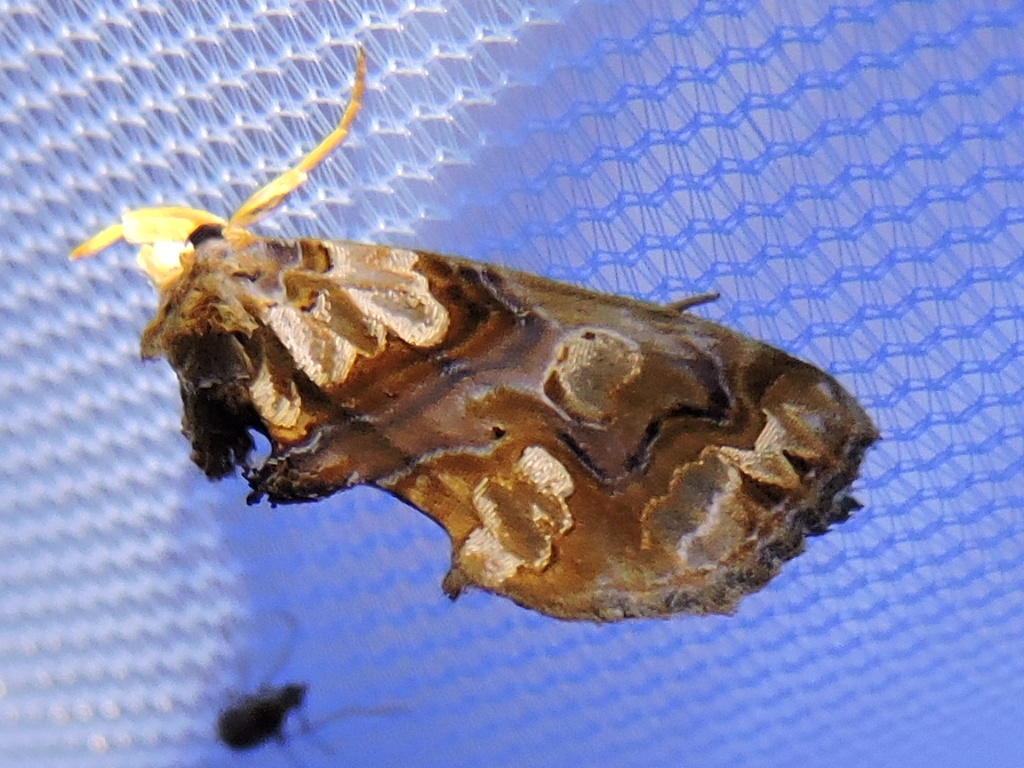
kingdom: Animalia
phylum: Arthropoda
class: Insecta
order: Lepidoptera
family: Erebidae
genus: Plusiodonta
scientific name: Plusiodonta compressipalpis
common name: Moonseed moth
